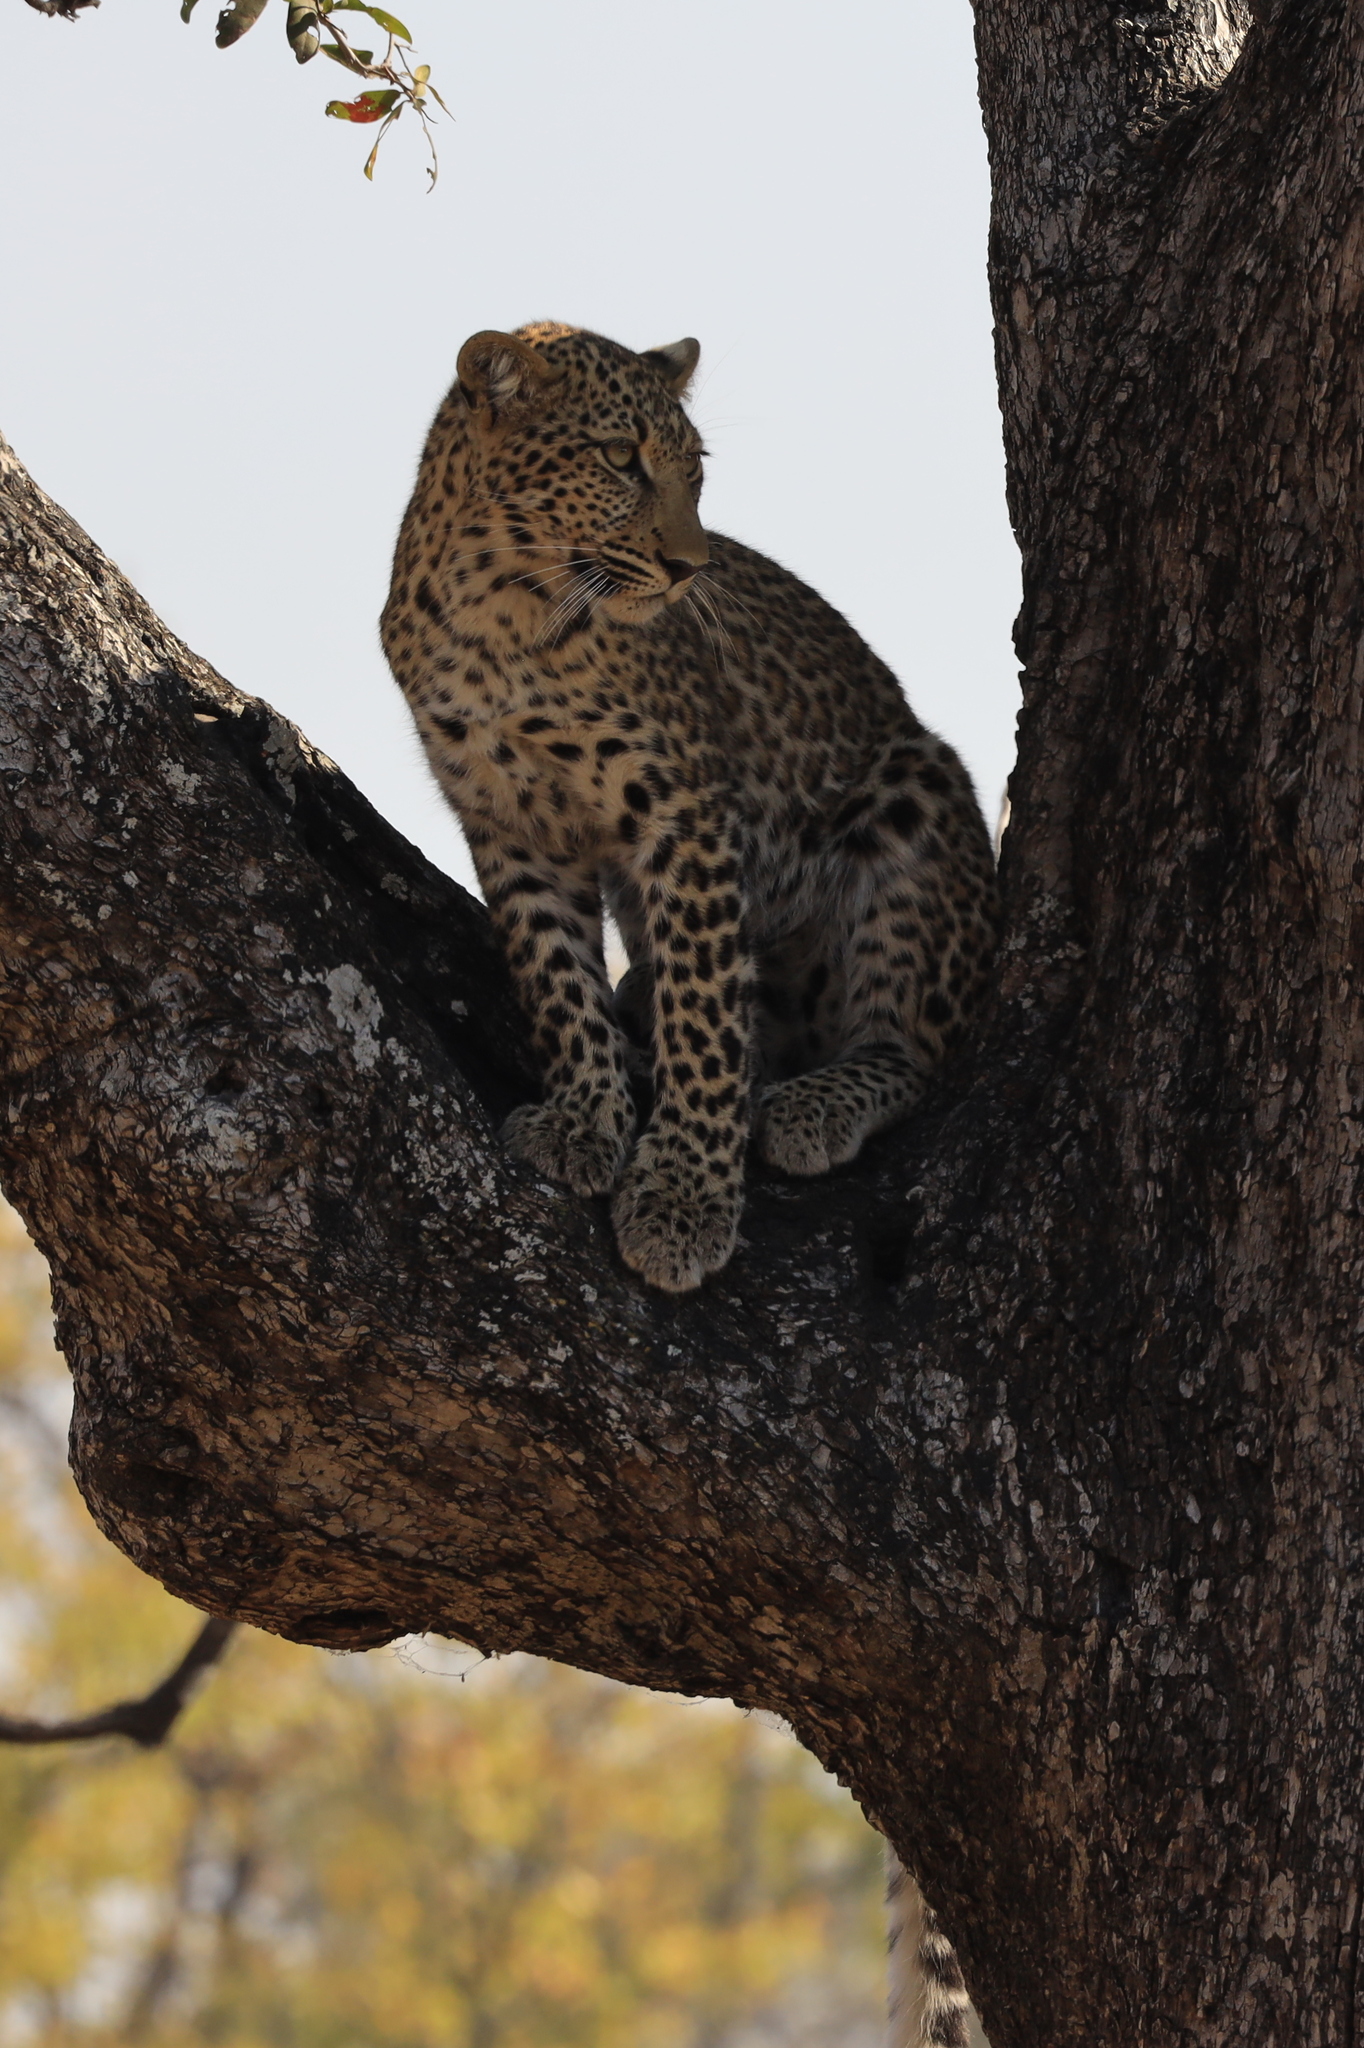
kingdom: Animalia
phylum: Chordata
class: Mammalia
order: Carnivora
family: Felidae
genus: Panthera
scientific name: Panthera pardus
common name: Leopard
